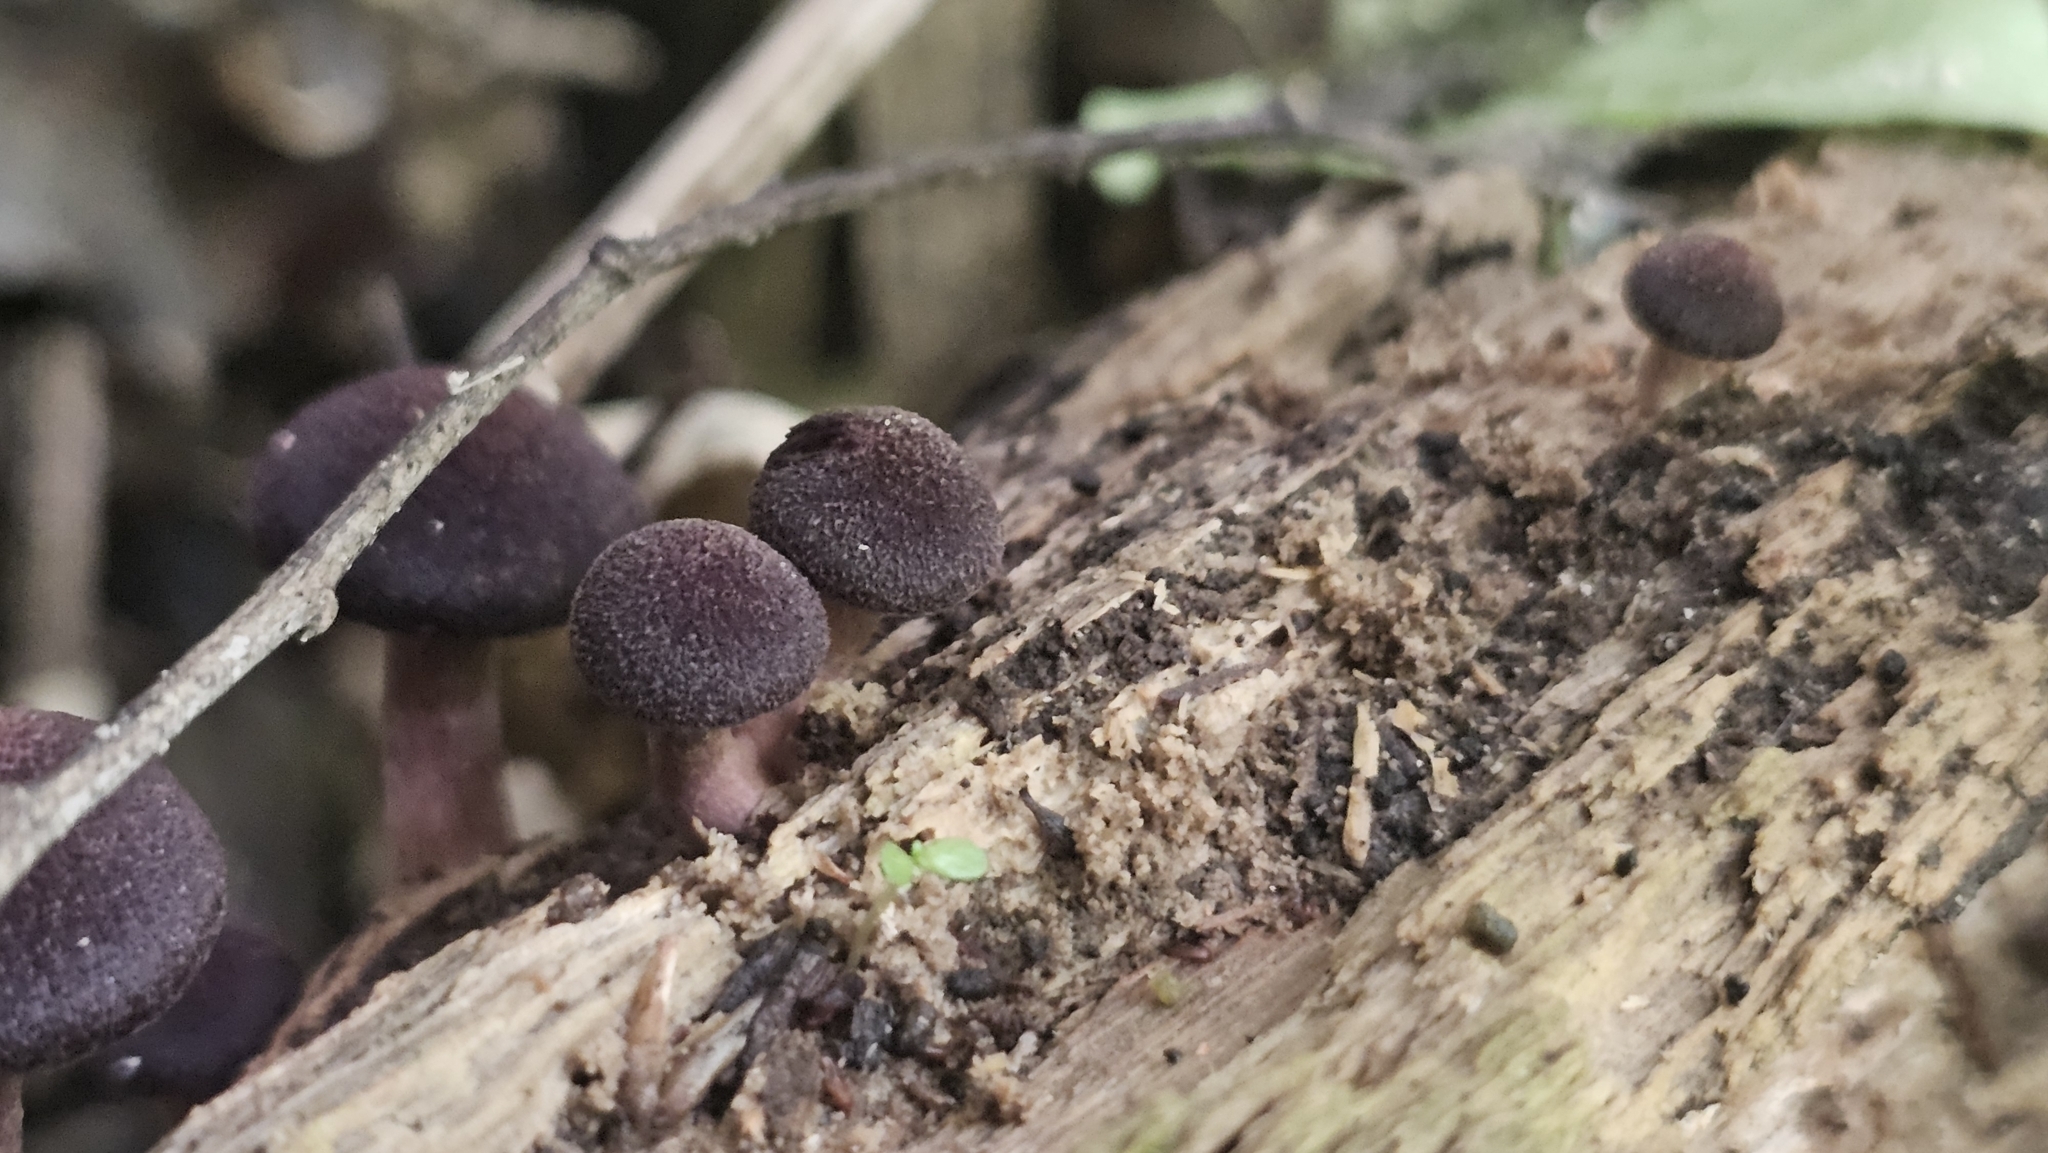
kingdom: Fungi
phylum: Basidiomycota
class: Agaricomycetes
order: Agaricales
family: Hymenogastraceae
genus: Gymnopilus
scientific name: Gymnopilus purpuratus
